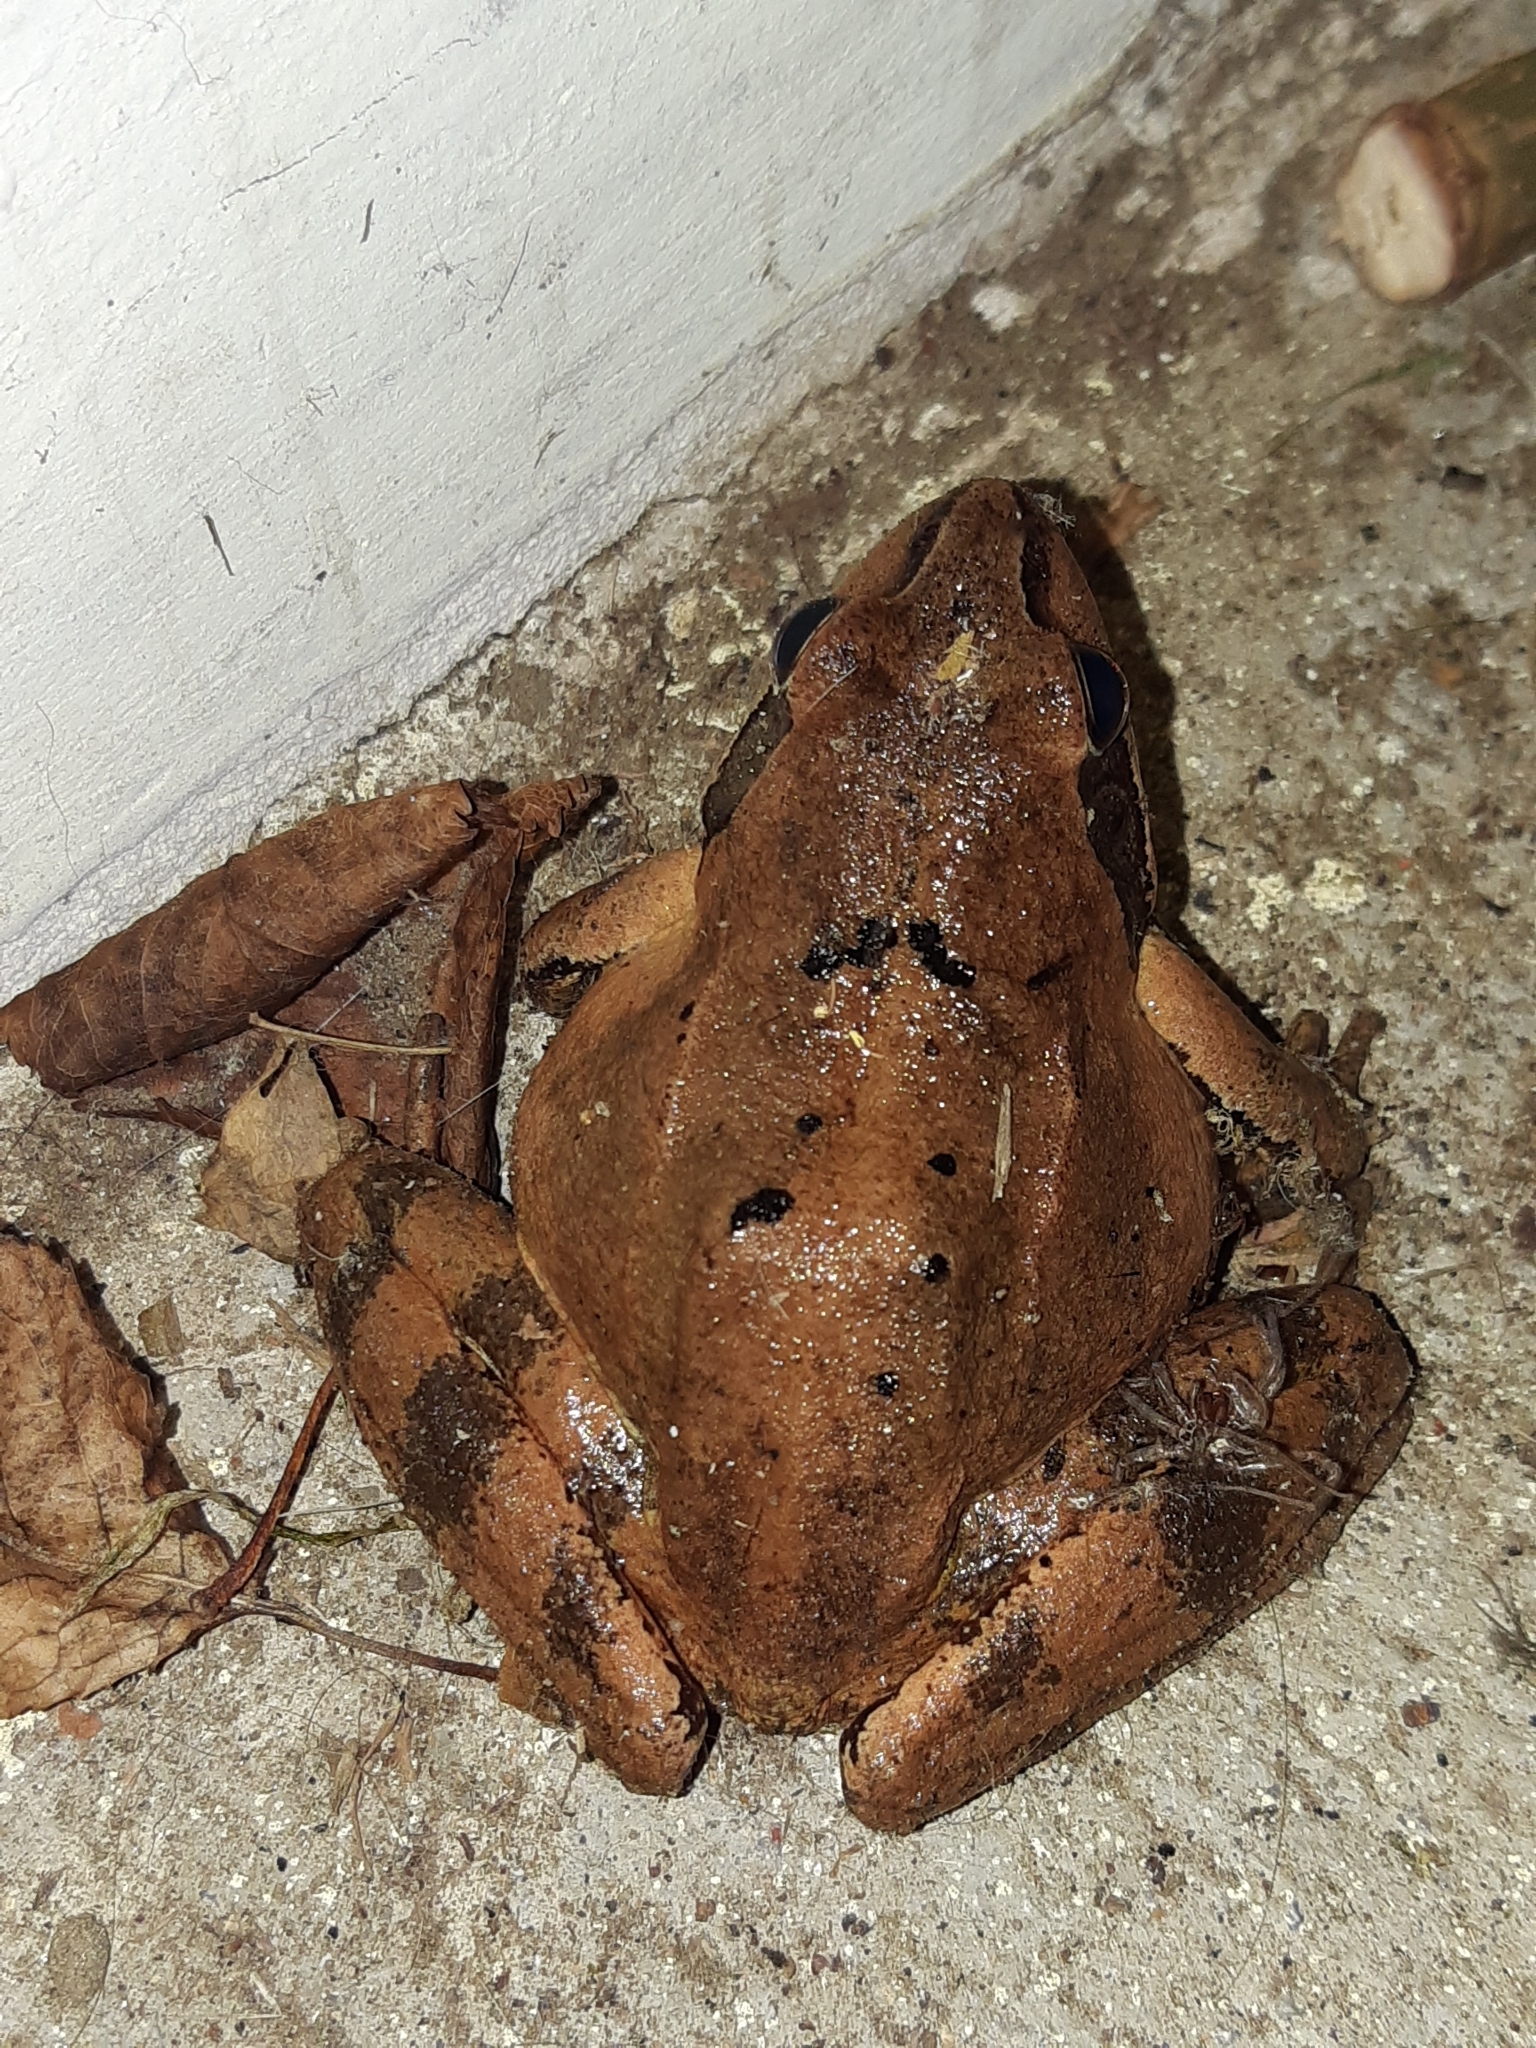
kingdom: Animalia
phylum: Chordata
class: Amphibia
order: Anura
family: Ranidae
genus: Rana
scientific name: Rana dalmatina
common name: Agile frog
